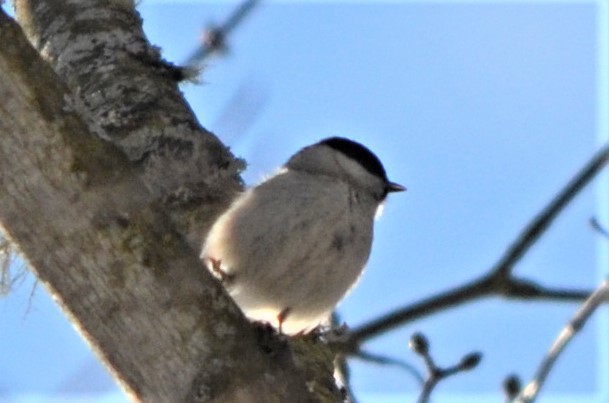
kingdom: Animalia
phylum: Chordata
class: Aves
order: Passeriformes
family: Paridae
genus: Poecile
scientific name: Poecile palustris
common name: Marsh tit
